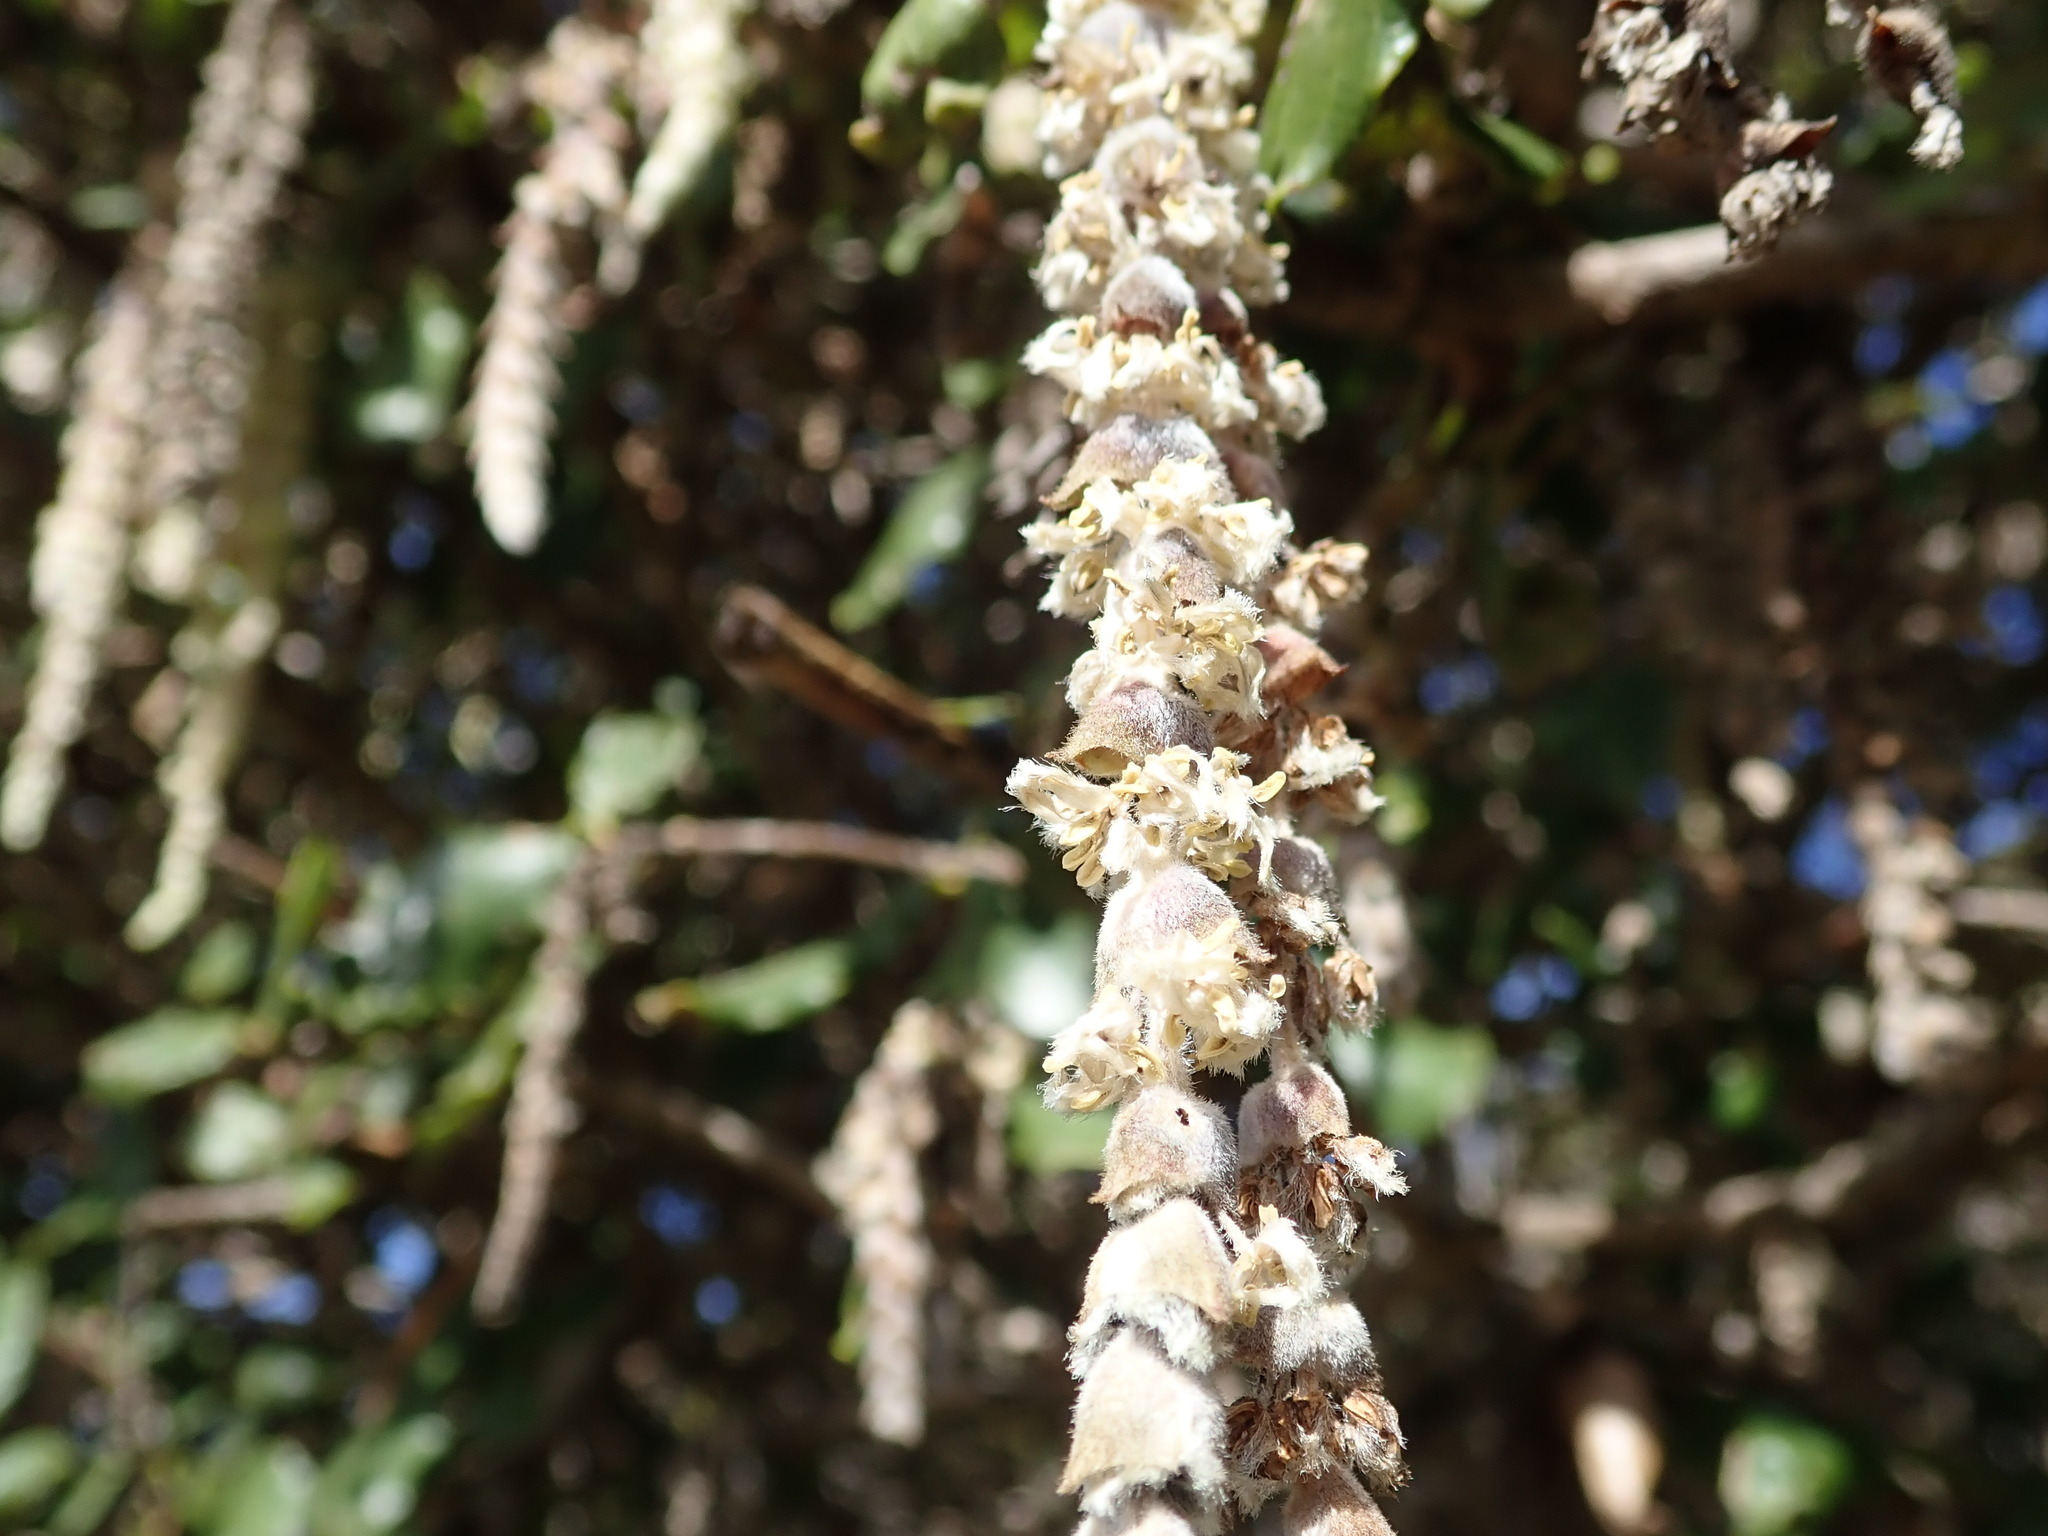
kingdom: Plantae
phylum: Tracheophyta
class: Magnoliopsida
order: Garryales
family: Garryaceae
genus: Garrya
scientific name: Garrya elliptica
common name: Silk-tassel
